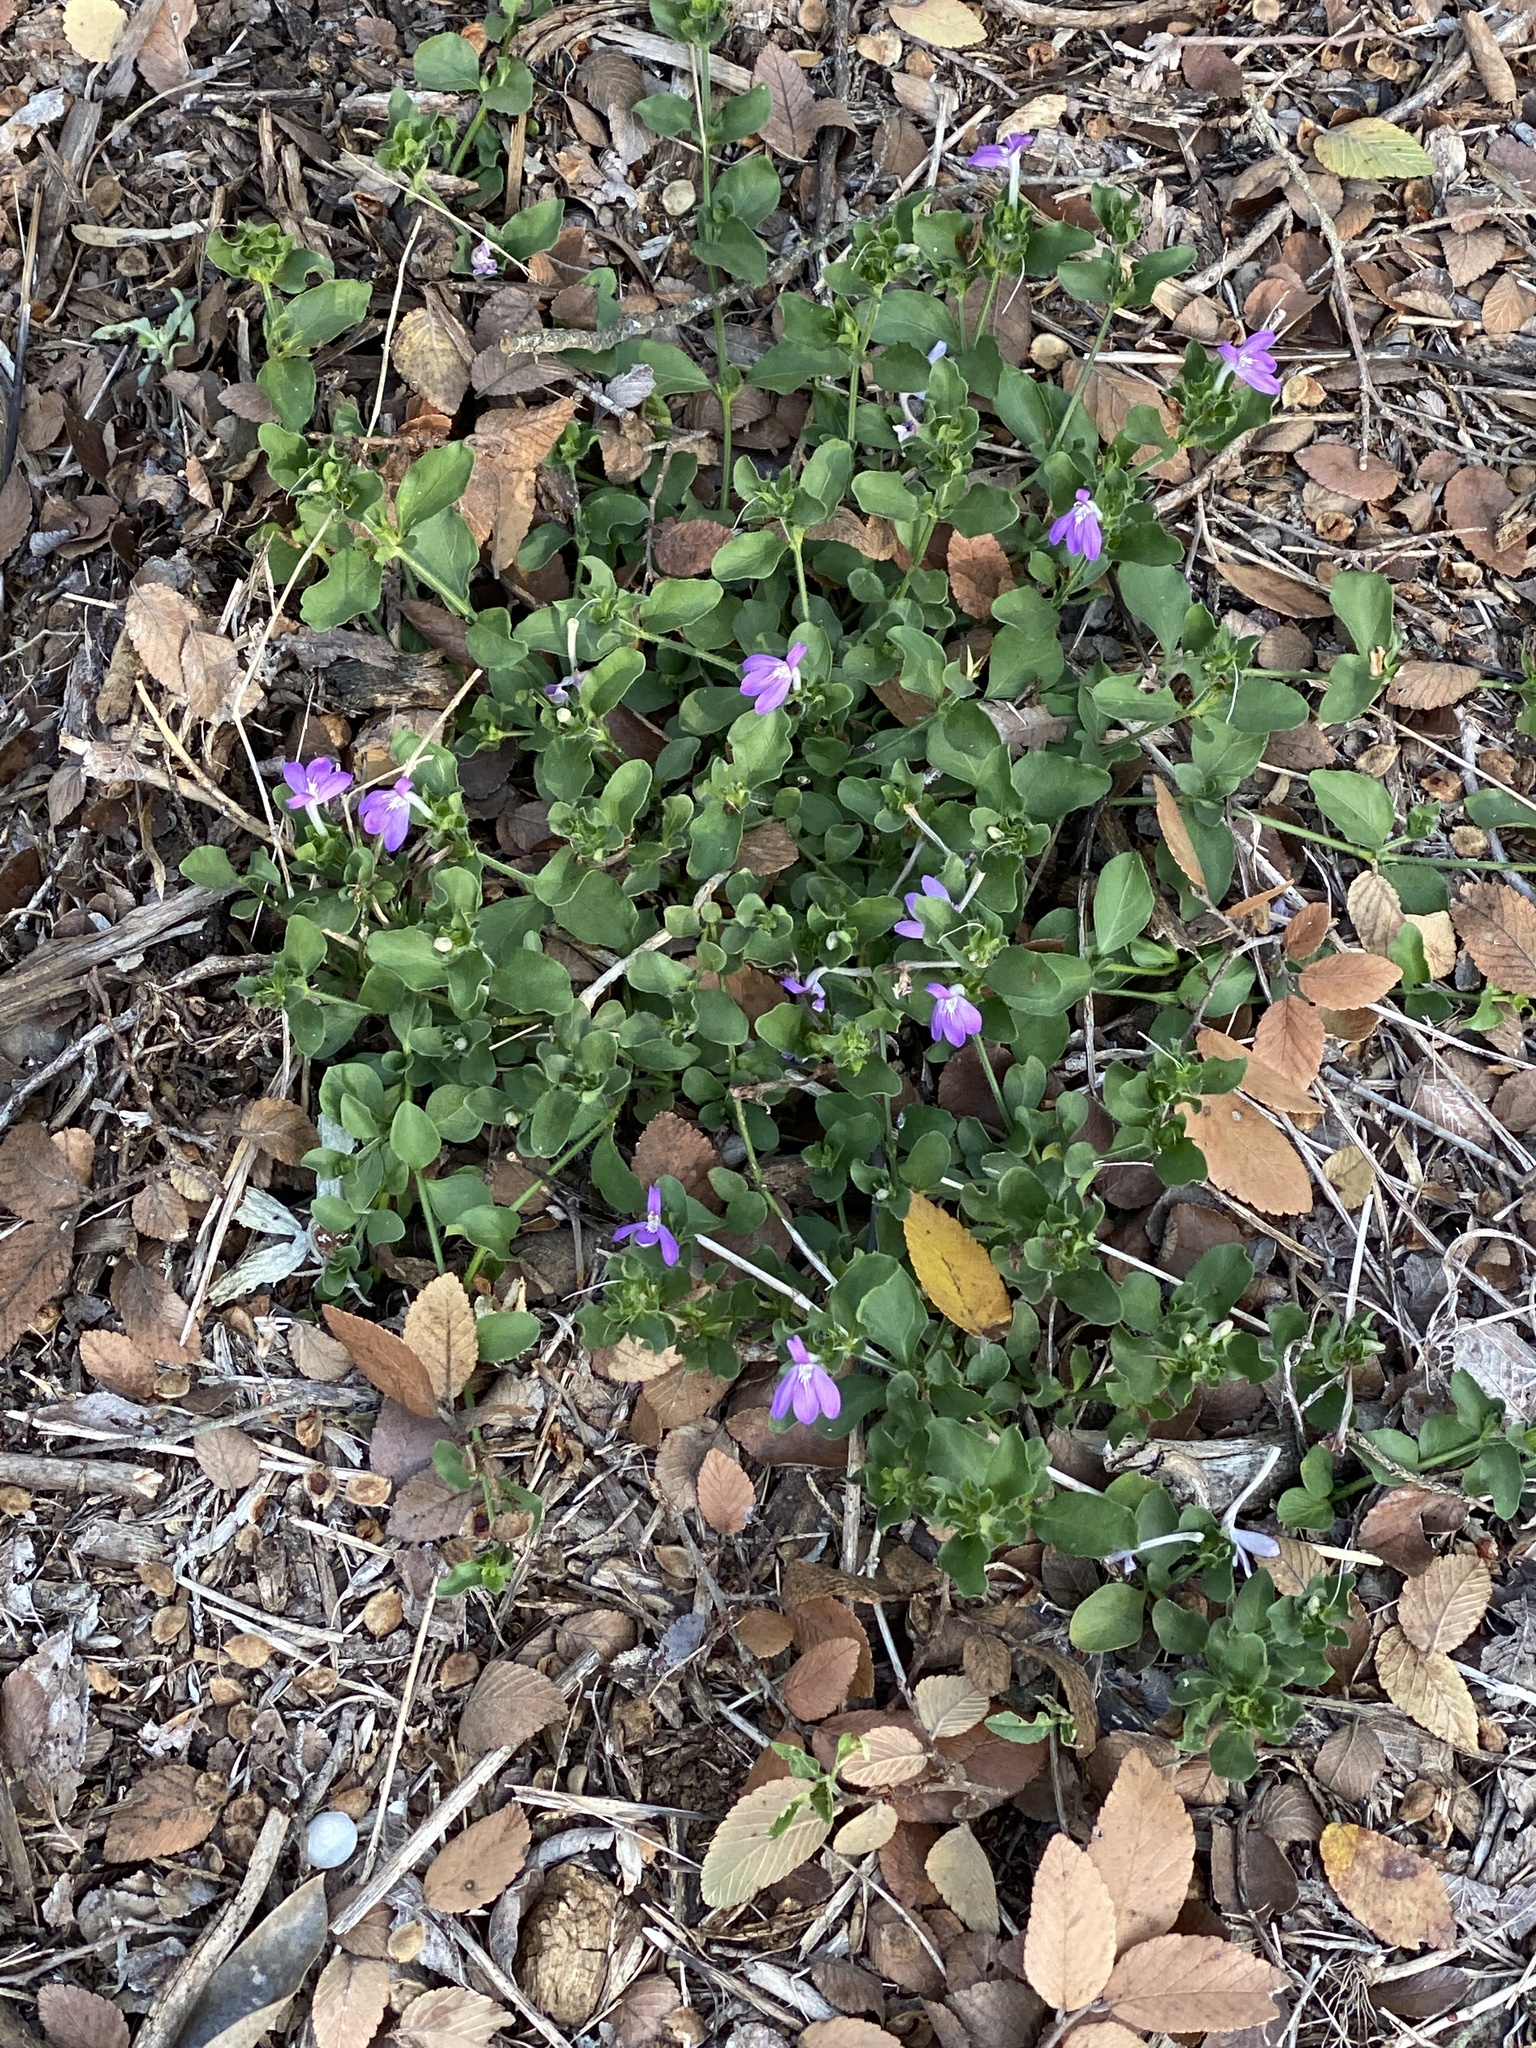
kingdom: Plantae
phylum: Tracheophyta
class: Magnoliopsida
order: Lamiales
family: Acanthaceae
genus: Justicia
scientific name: Justicia pilosella
